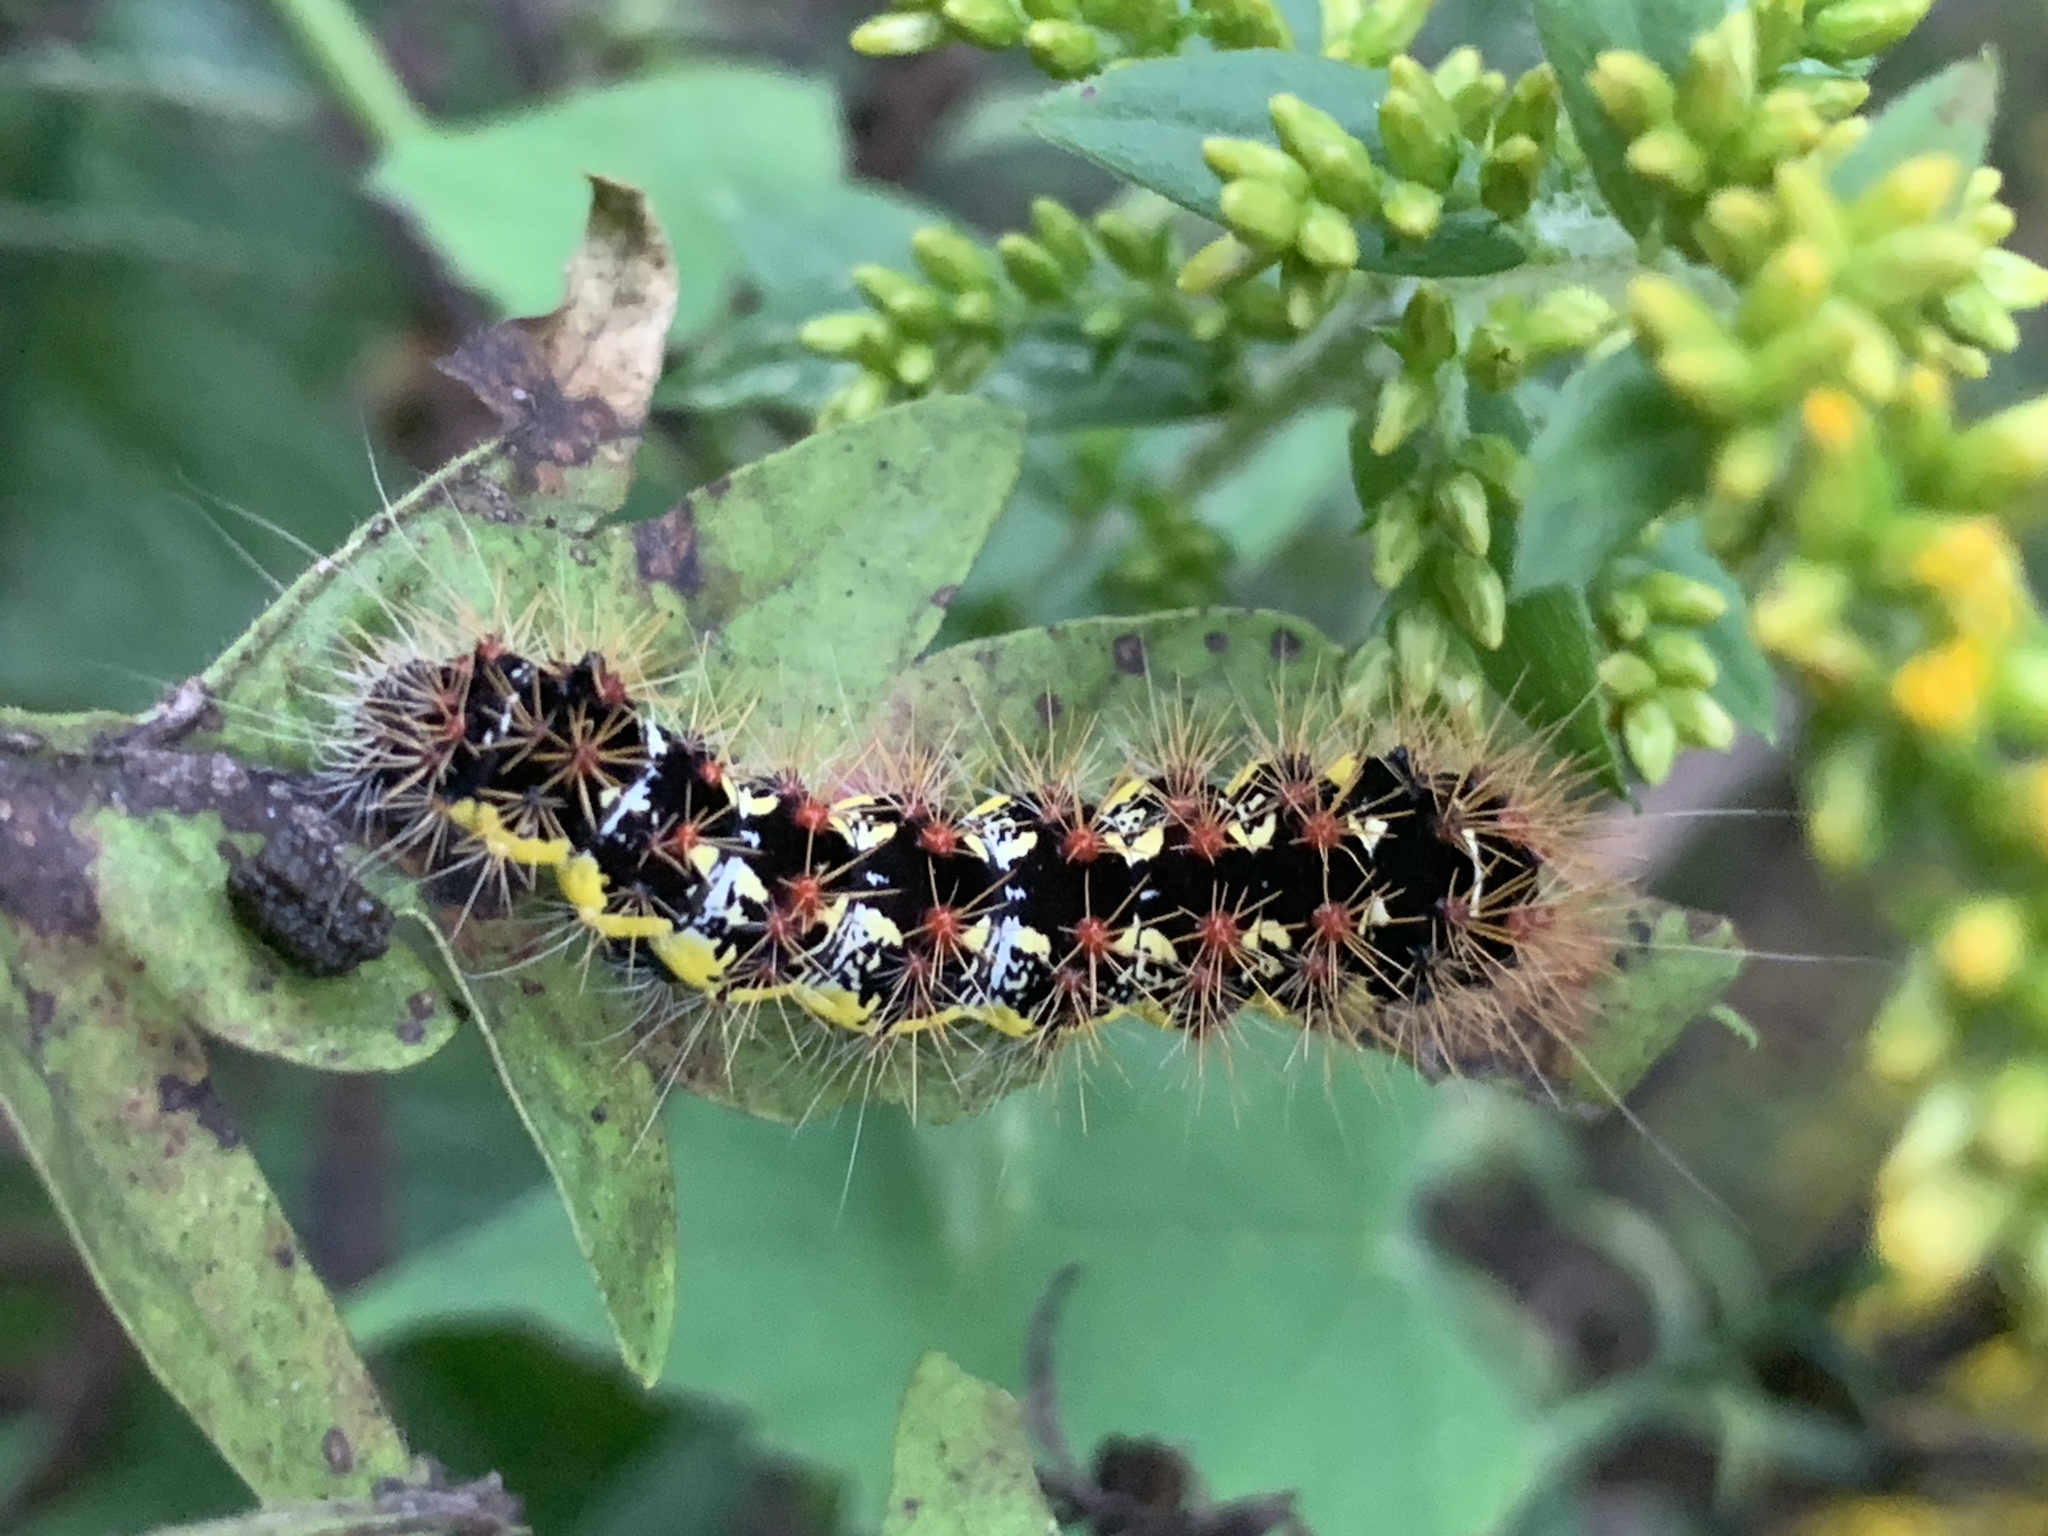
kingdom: Animalia
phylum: Arthropoda
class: Insecta
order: Lepidoptera
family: Noctuidae
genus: Acronicta
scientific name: Acronicta oblinita
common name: Smeared dagger
